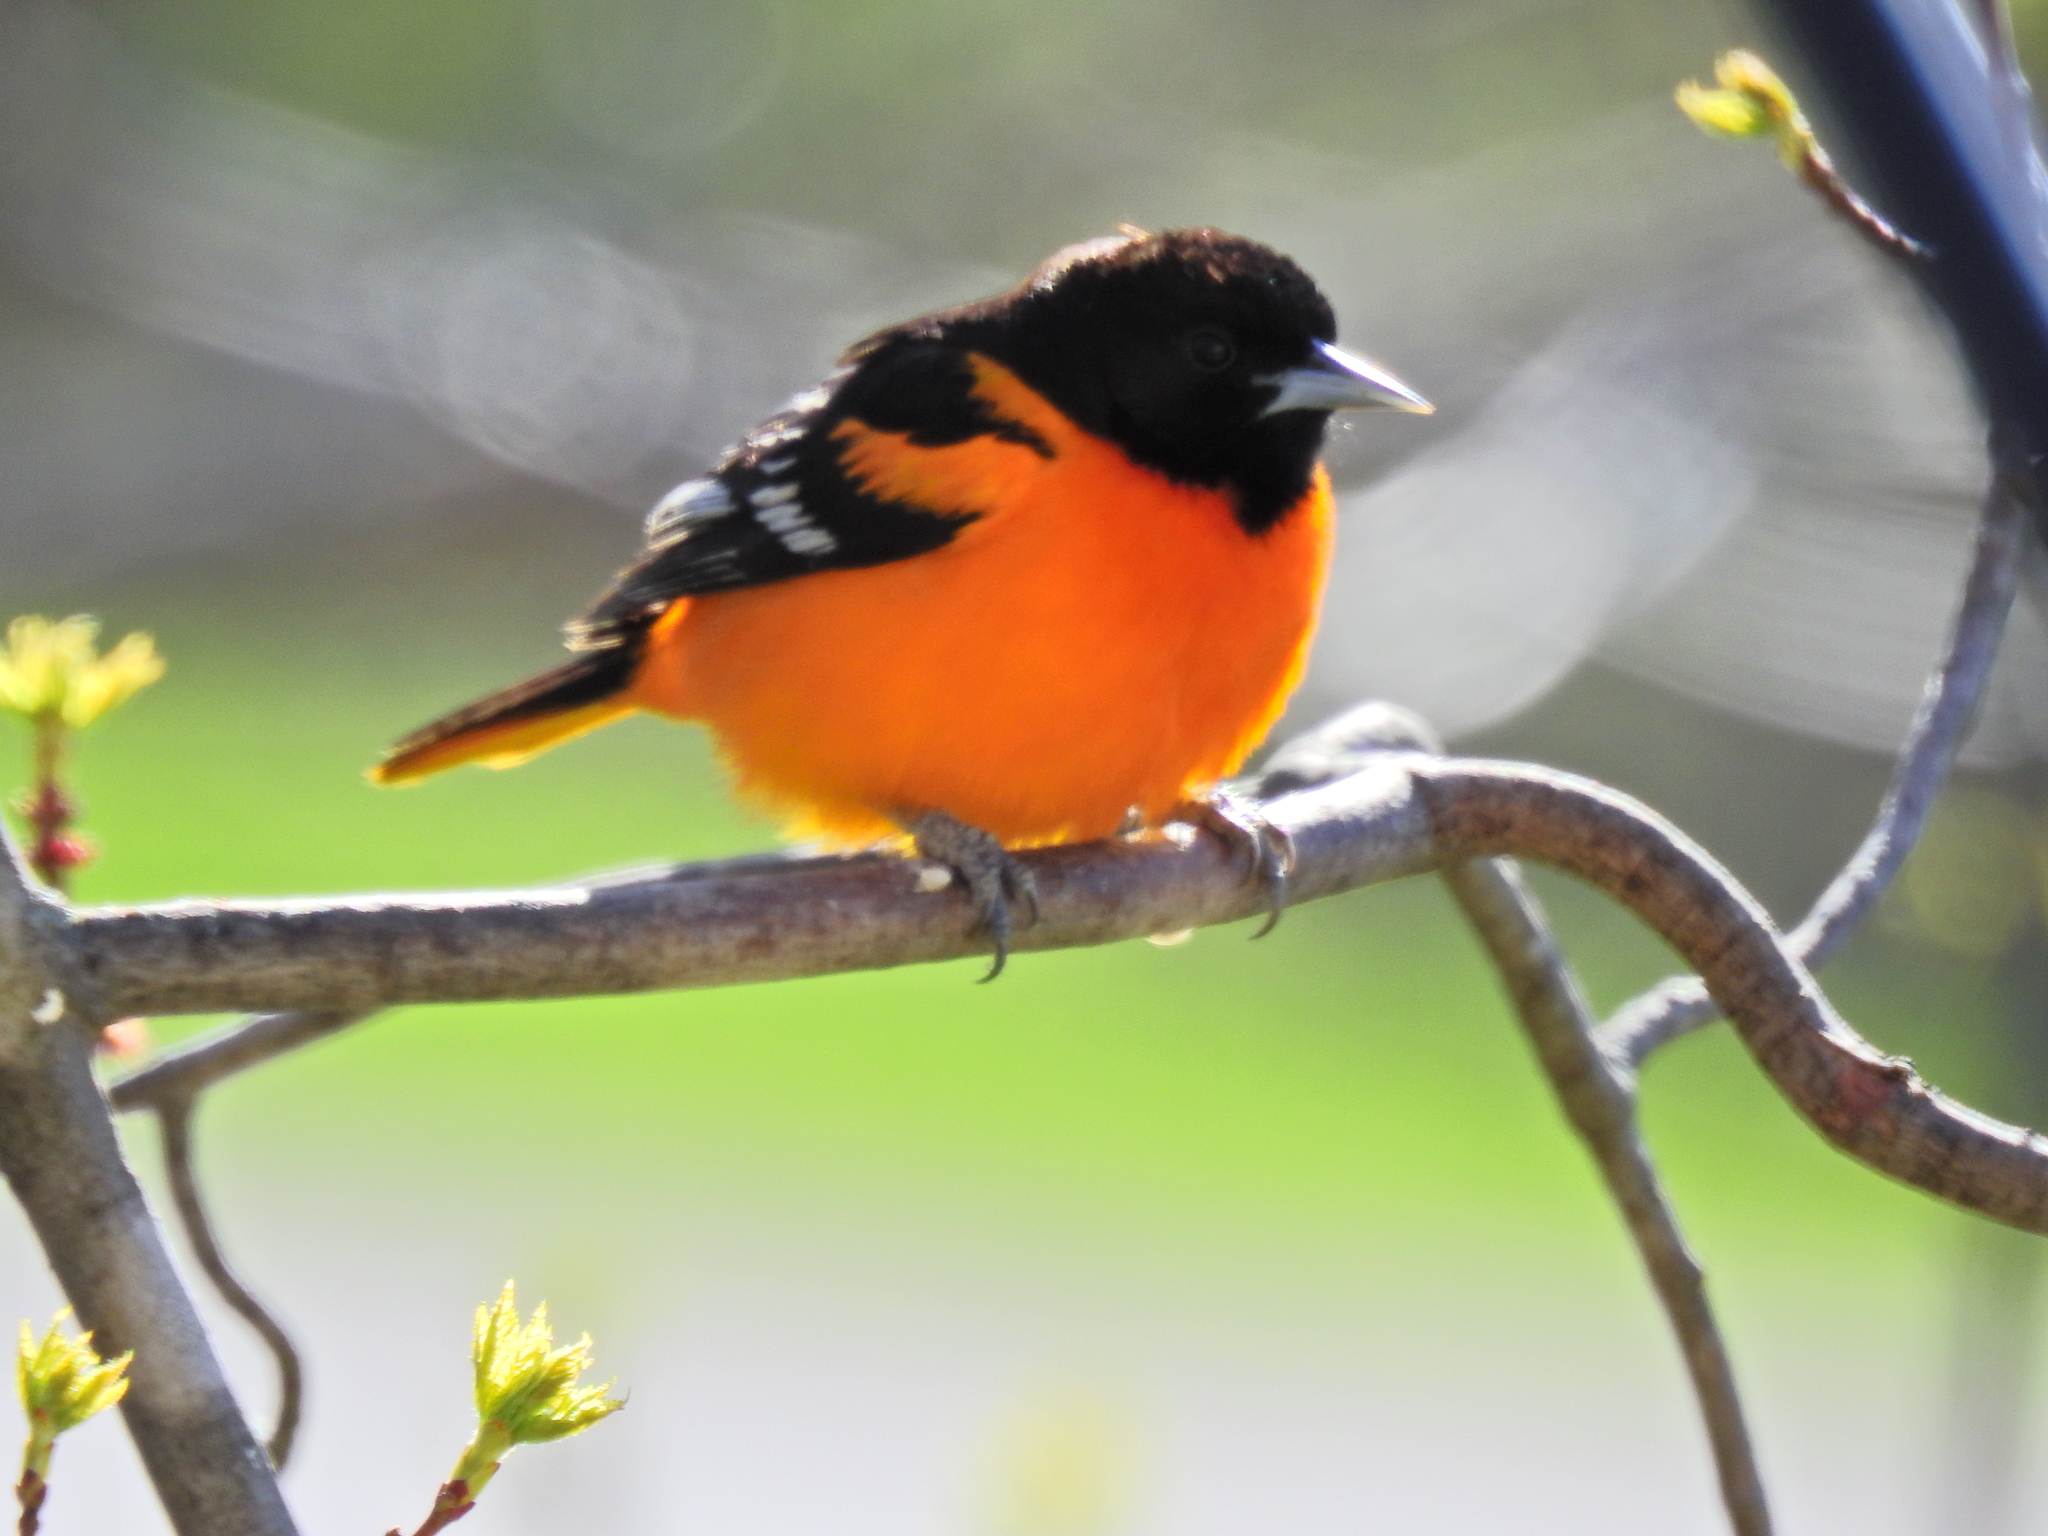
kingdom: Animalia
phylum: Chordata
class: Aves
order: Passeriformes
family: Icteridae
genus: Icterus
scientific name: Icterus galbula
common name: Baltimore oriole
